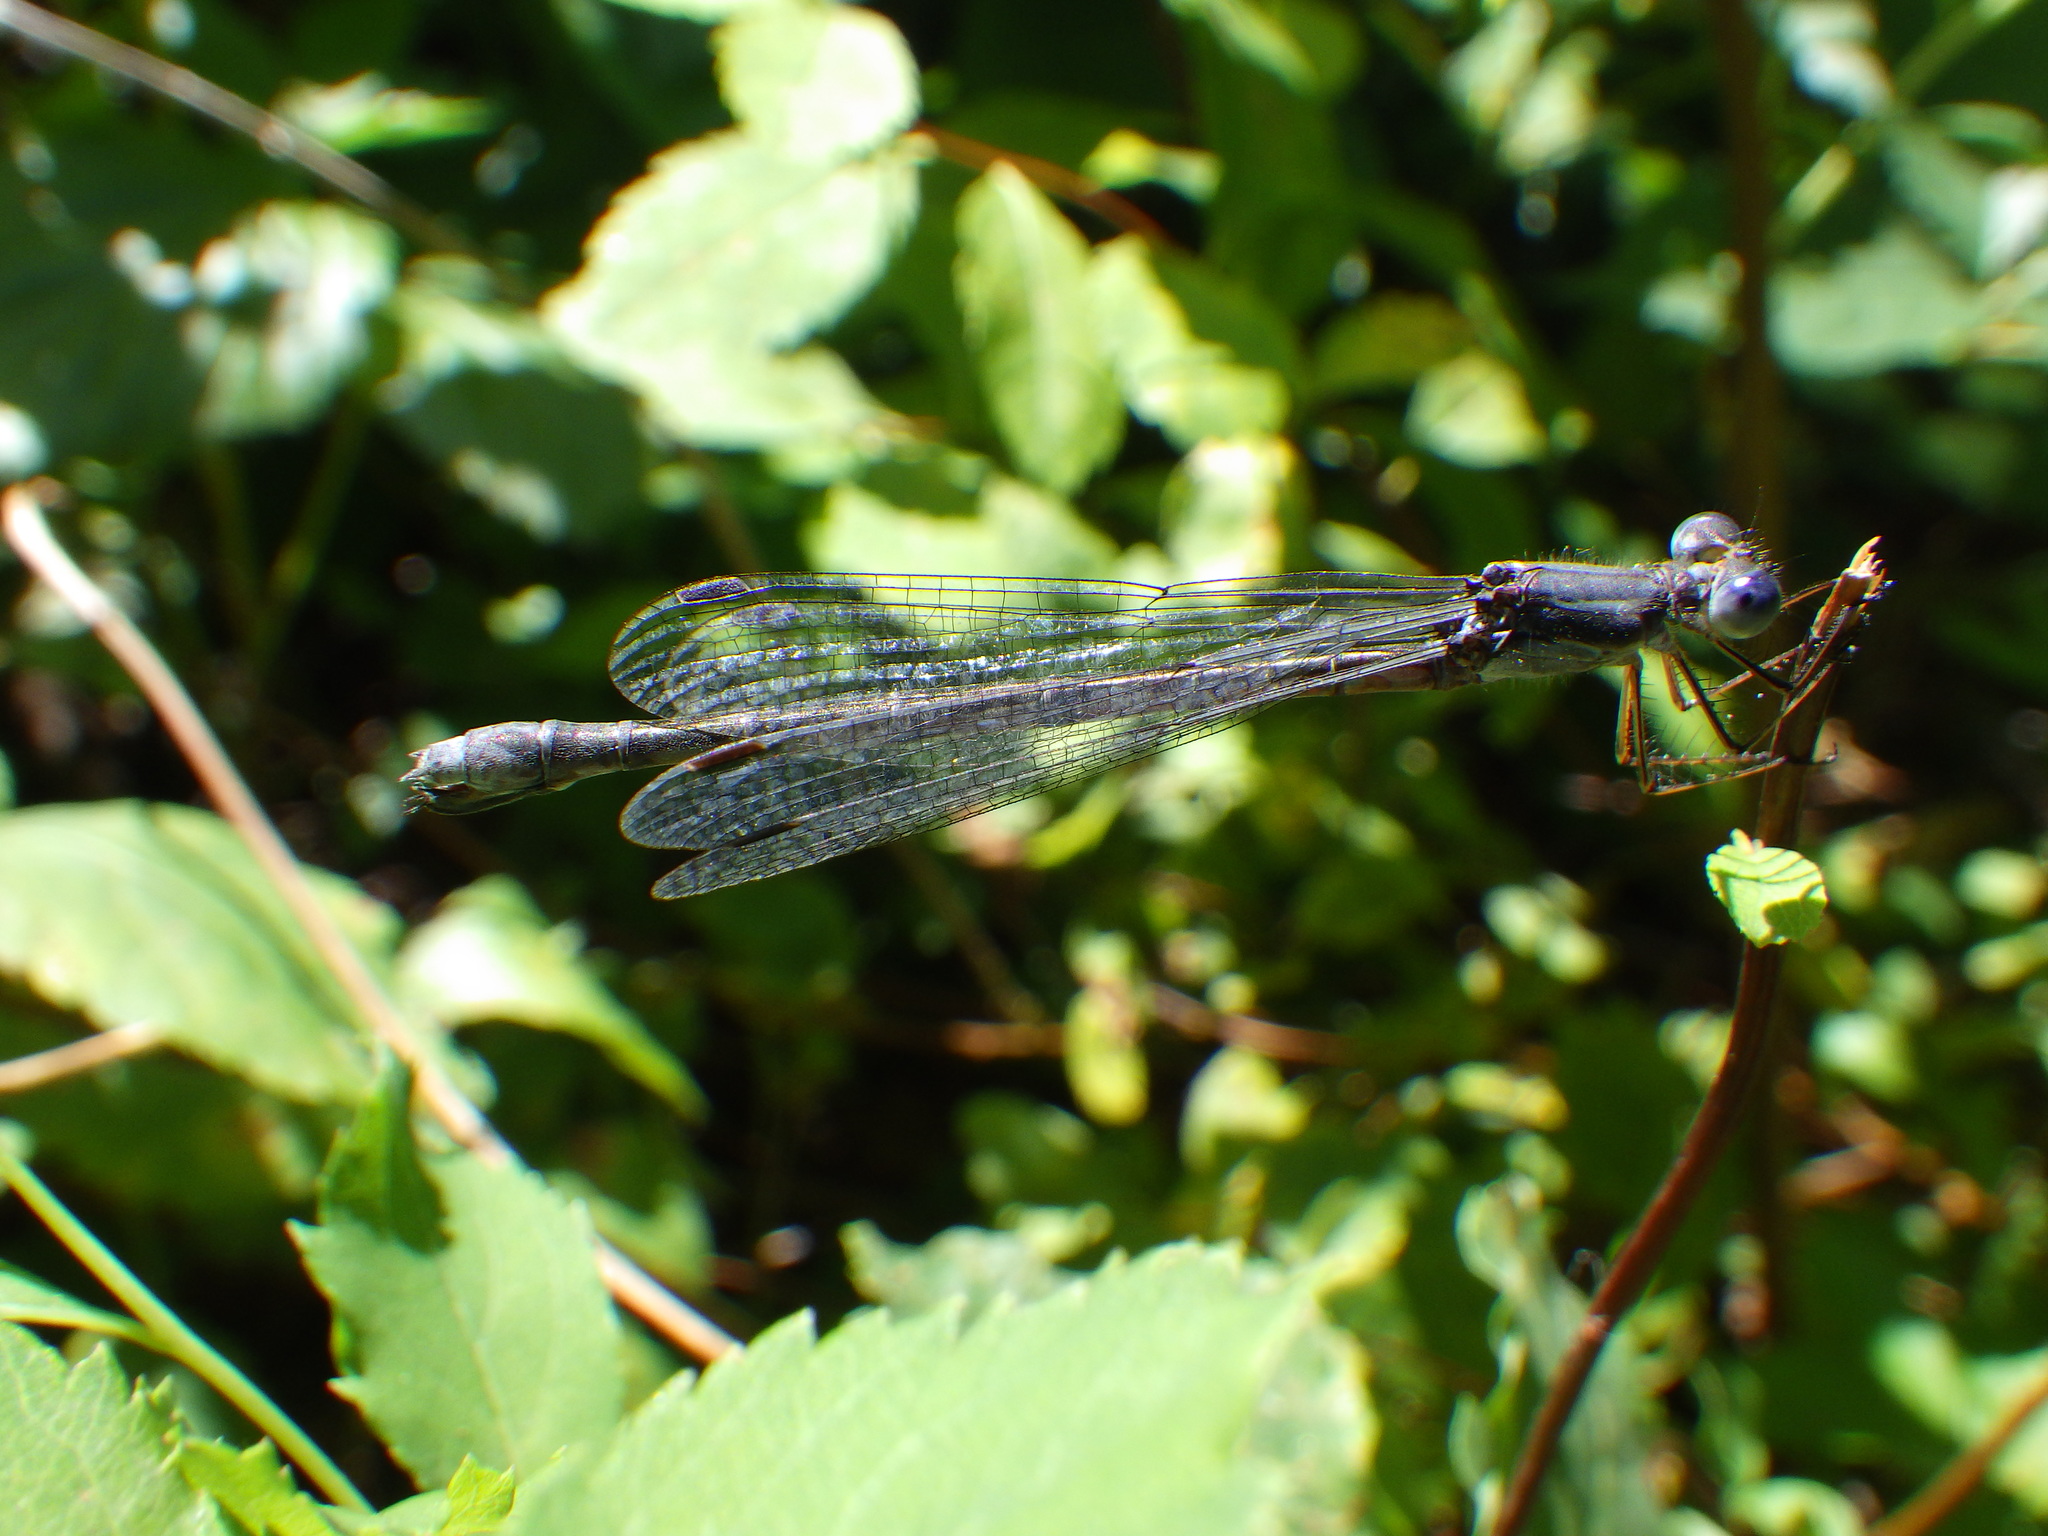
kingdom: Animalia
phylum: Arthropoda
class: Insecta
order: Odonata
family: Lestidae
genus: Lestes
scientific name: Lestes forcipatus
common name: Sweetflag spreadwing
